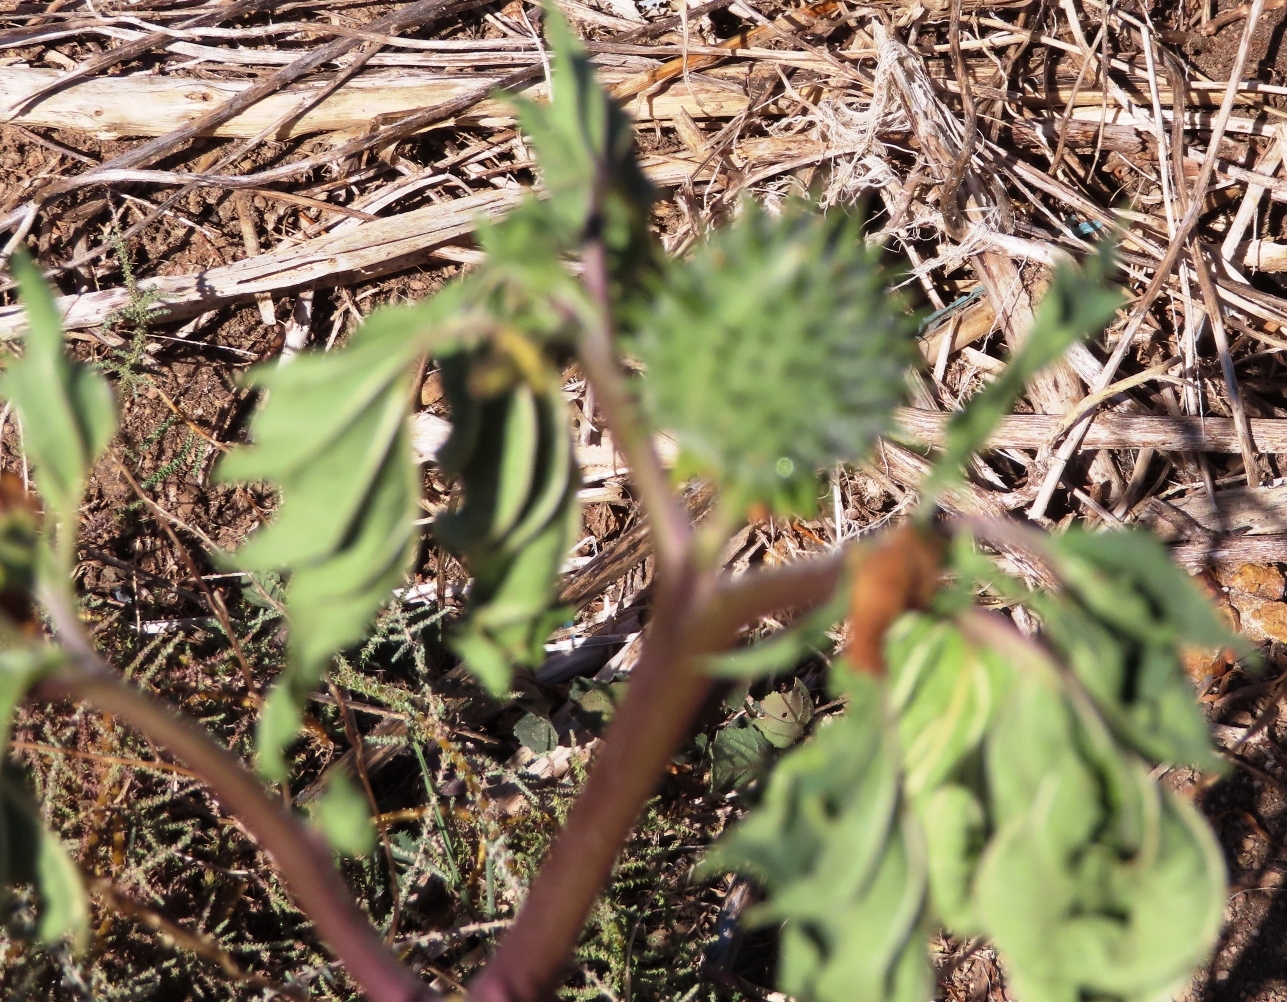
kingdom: Plantae
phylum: Tracheophyta
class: Magnoliopsida
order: Solanales
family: Solanaceae
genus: Datura
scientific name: Datura stramonium
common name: Thorn-apple
